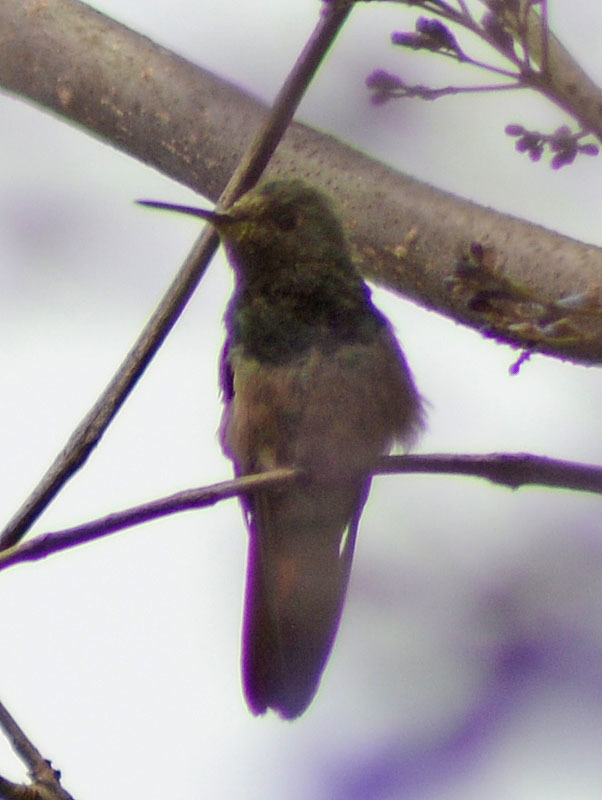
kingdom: Animalia
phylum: Chordata
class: Aves
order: Apodiformes
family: Trochilidae
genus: Saucerottia
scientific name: Saucerottia beryllina
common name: Berylline hummingbird
